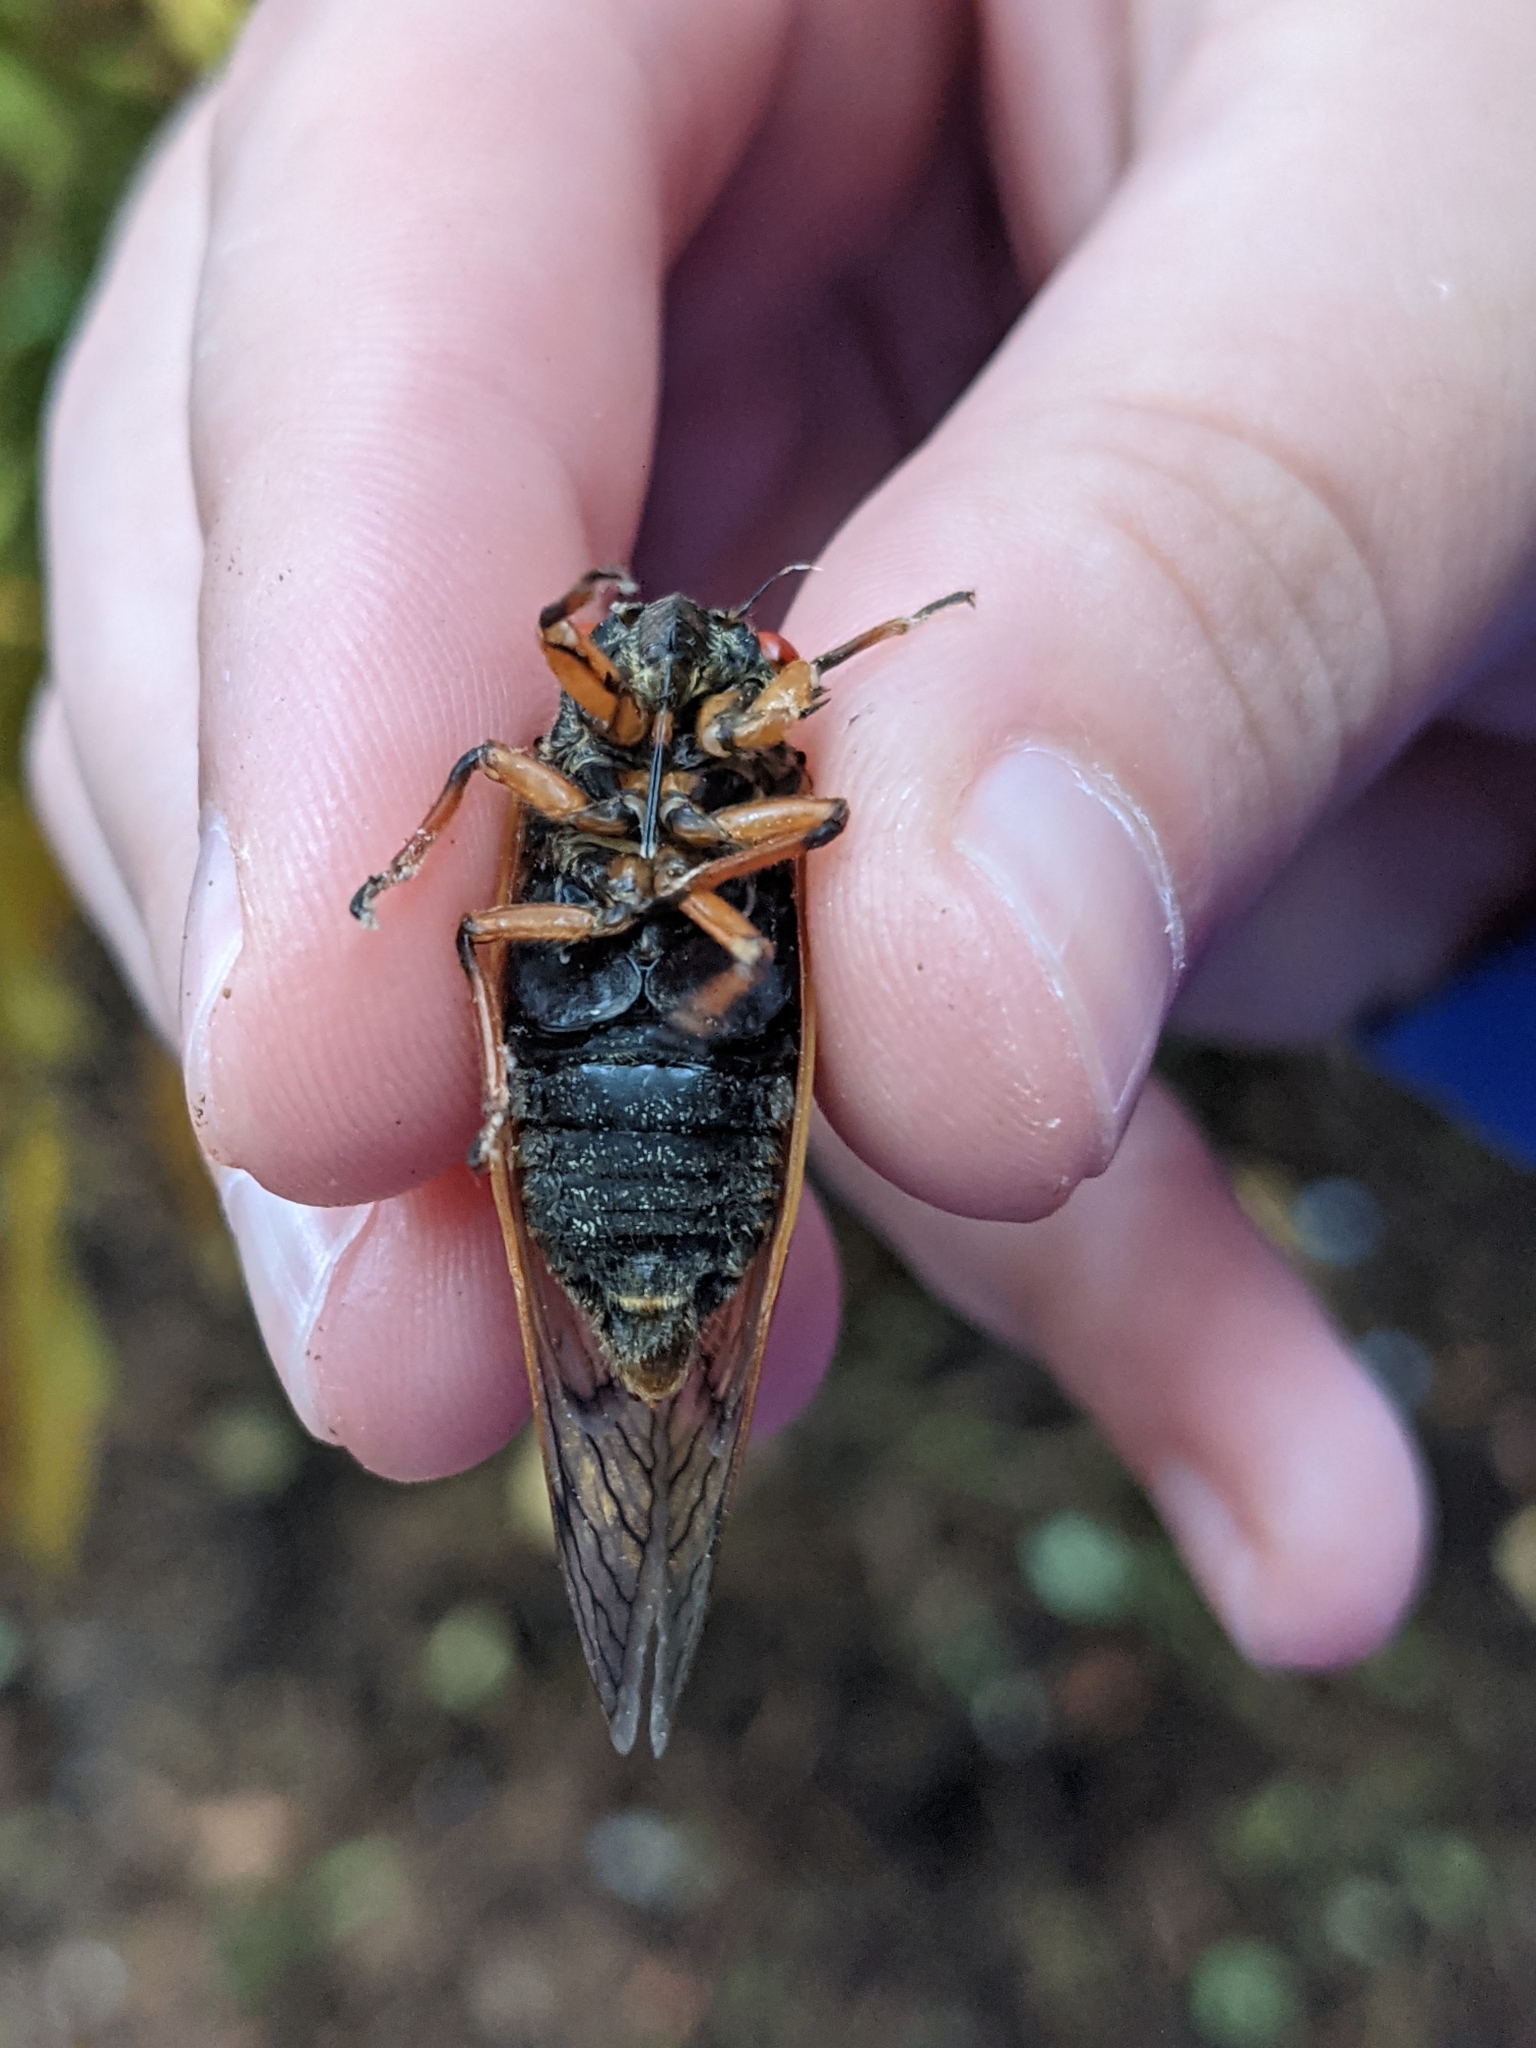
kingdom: Animalia
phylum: Arthropoda
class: Insecta
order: Hemiptera
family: Cicadidae
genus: Magicicada
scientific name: Magicicada cassini
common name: Cassin's 17-year cicada
